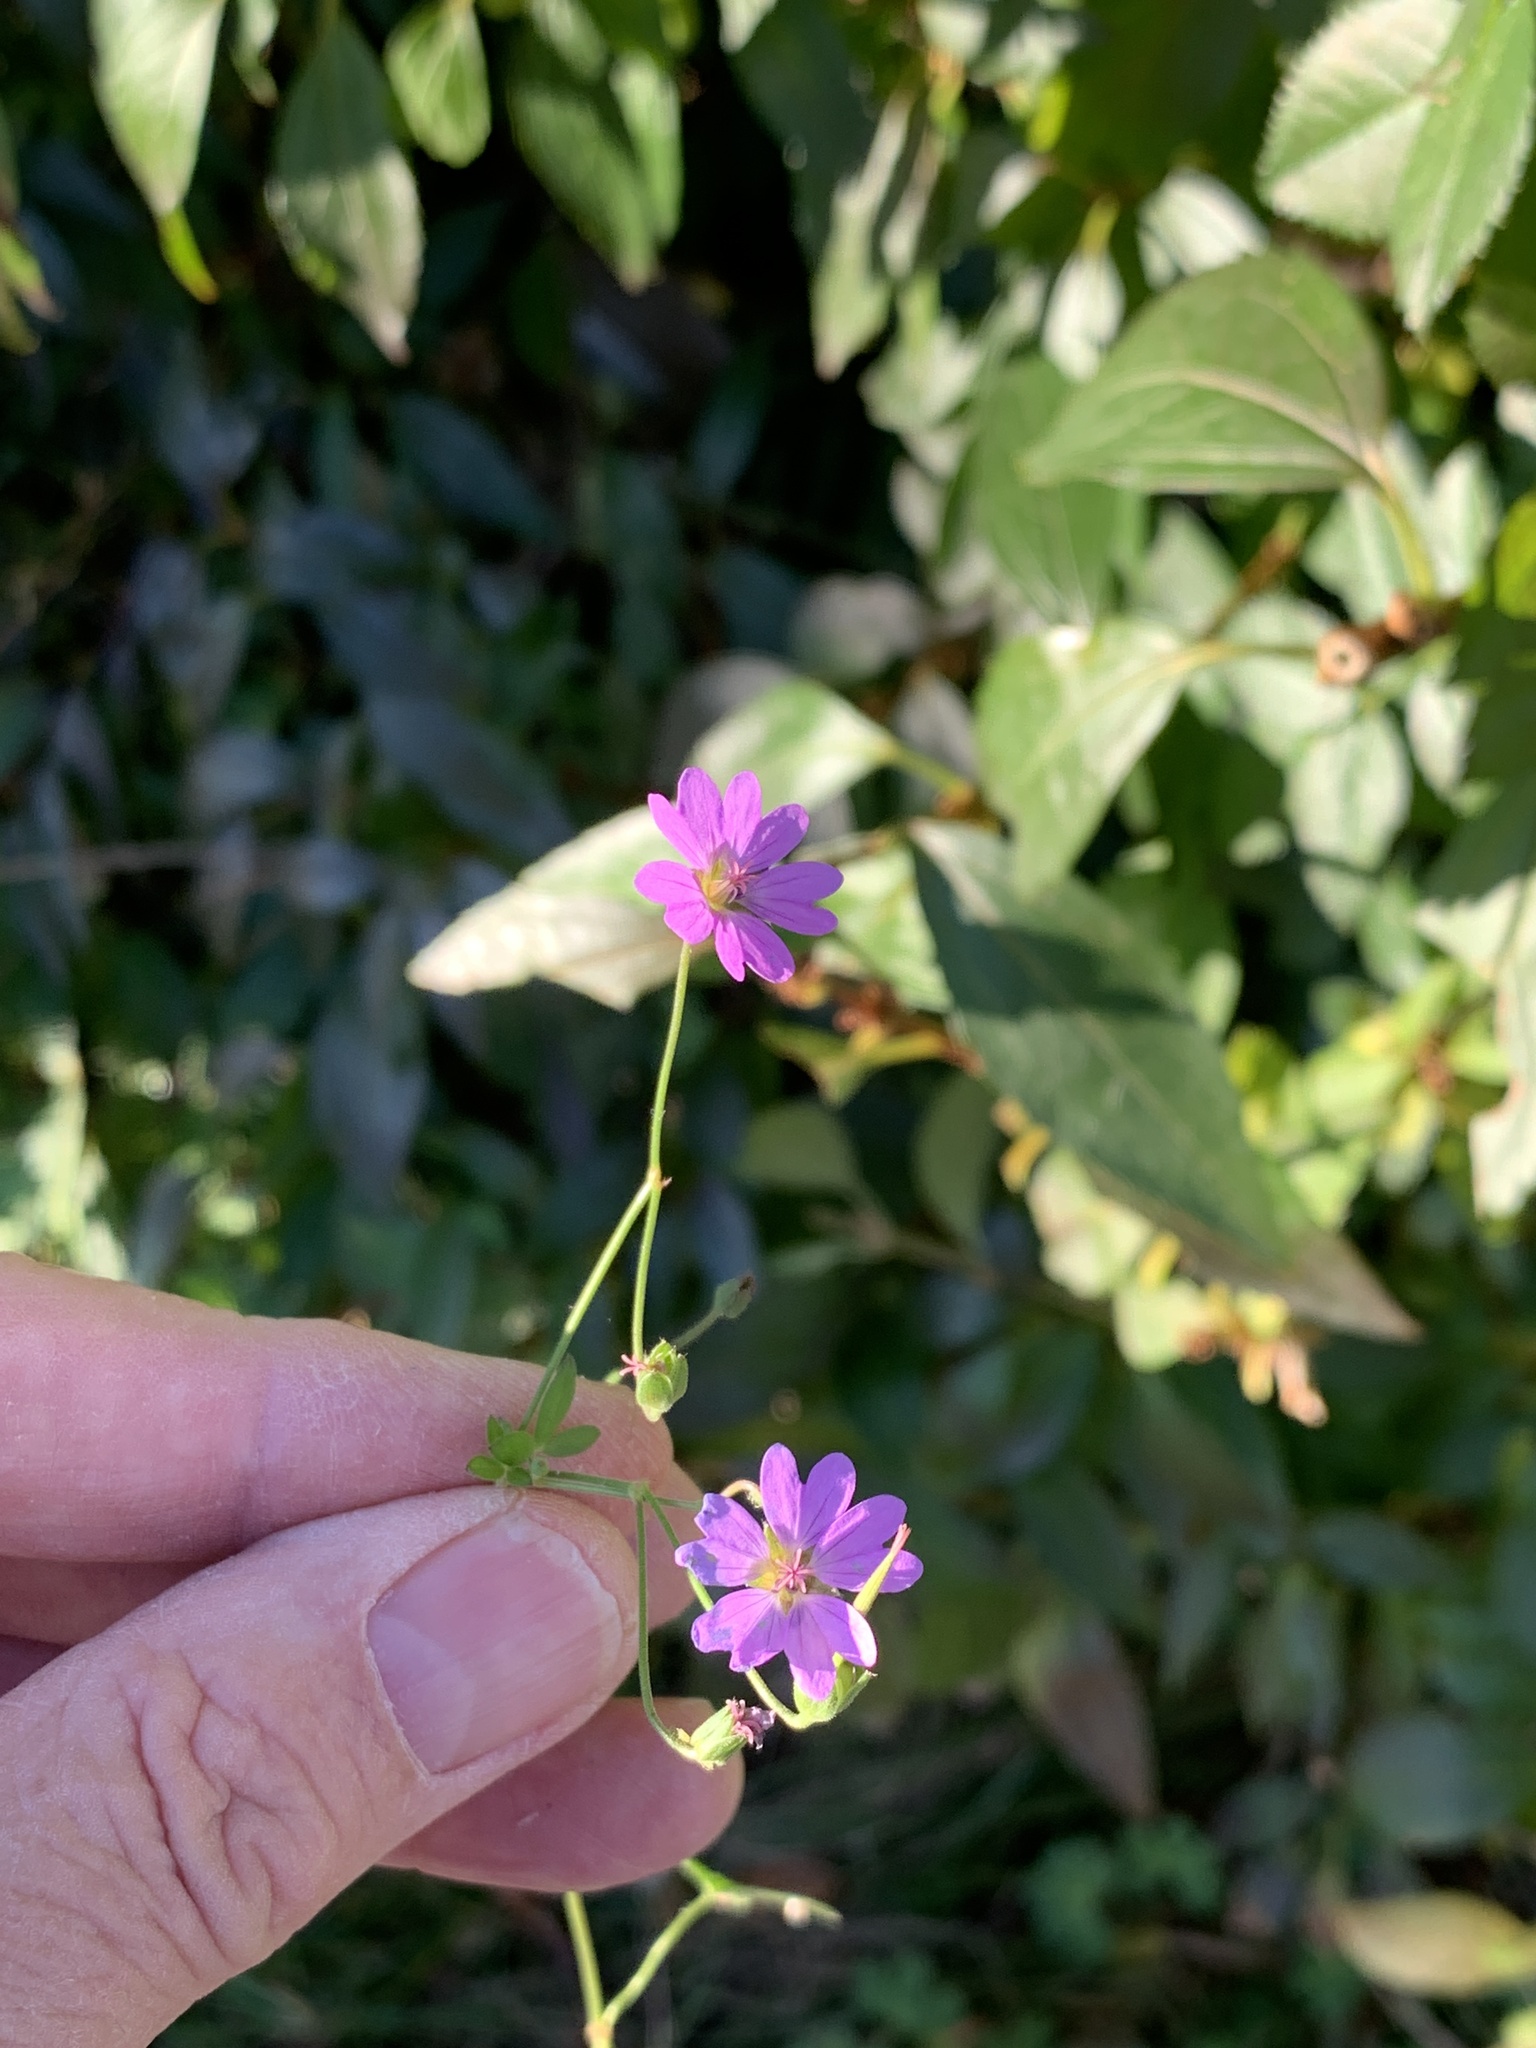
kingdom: Plantae
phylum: Tracheophyta
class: Magnoliopsida
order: Geraniales
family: Geraniaceae
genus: Geranium
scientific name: Geranium pyrenaicum
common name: Hedgerow crane's-bill
